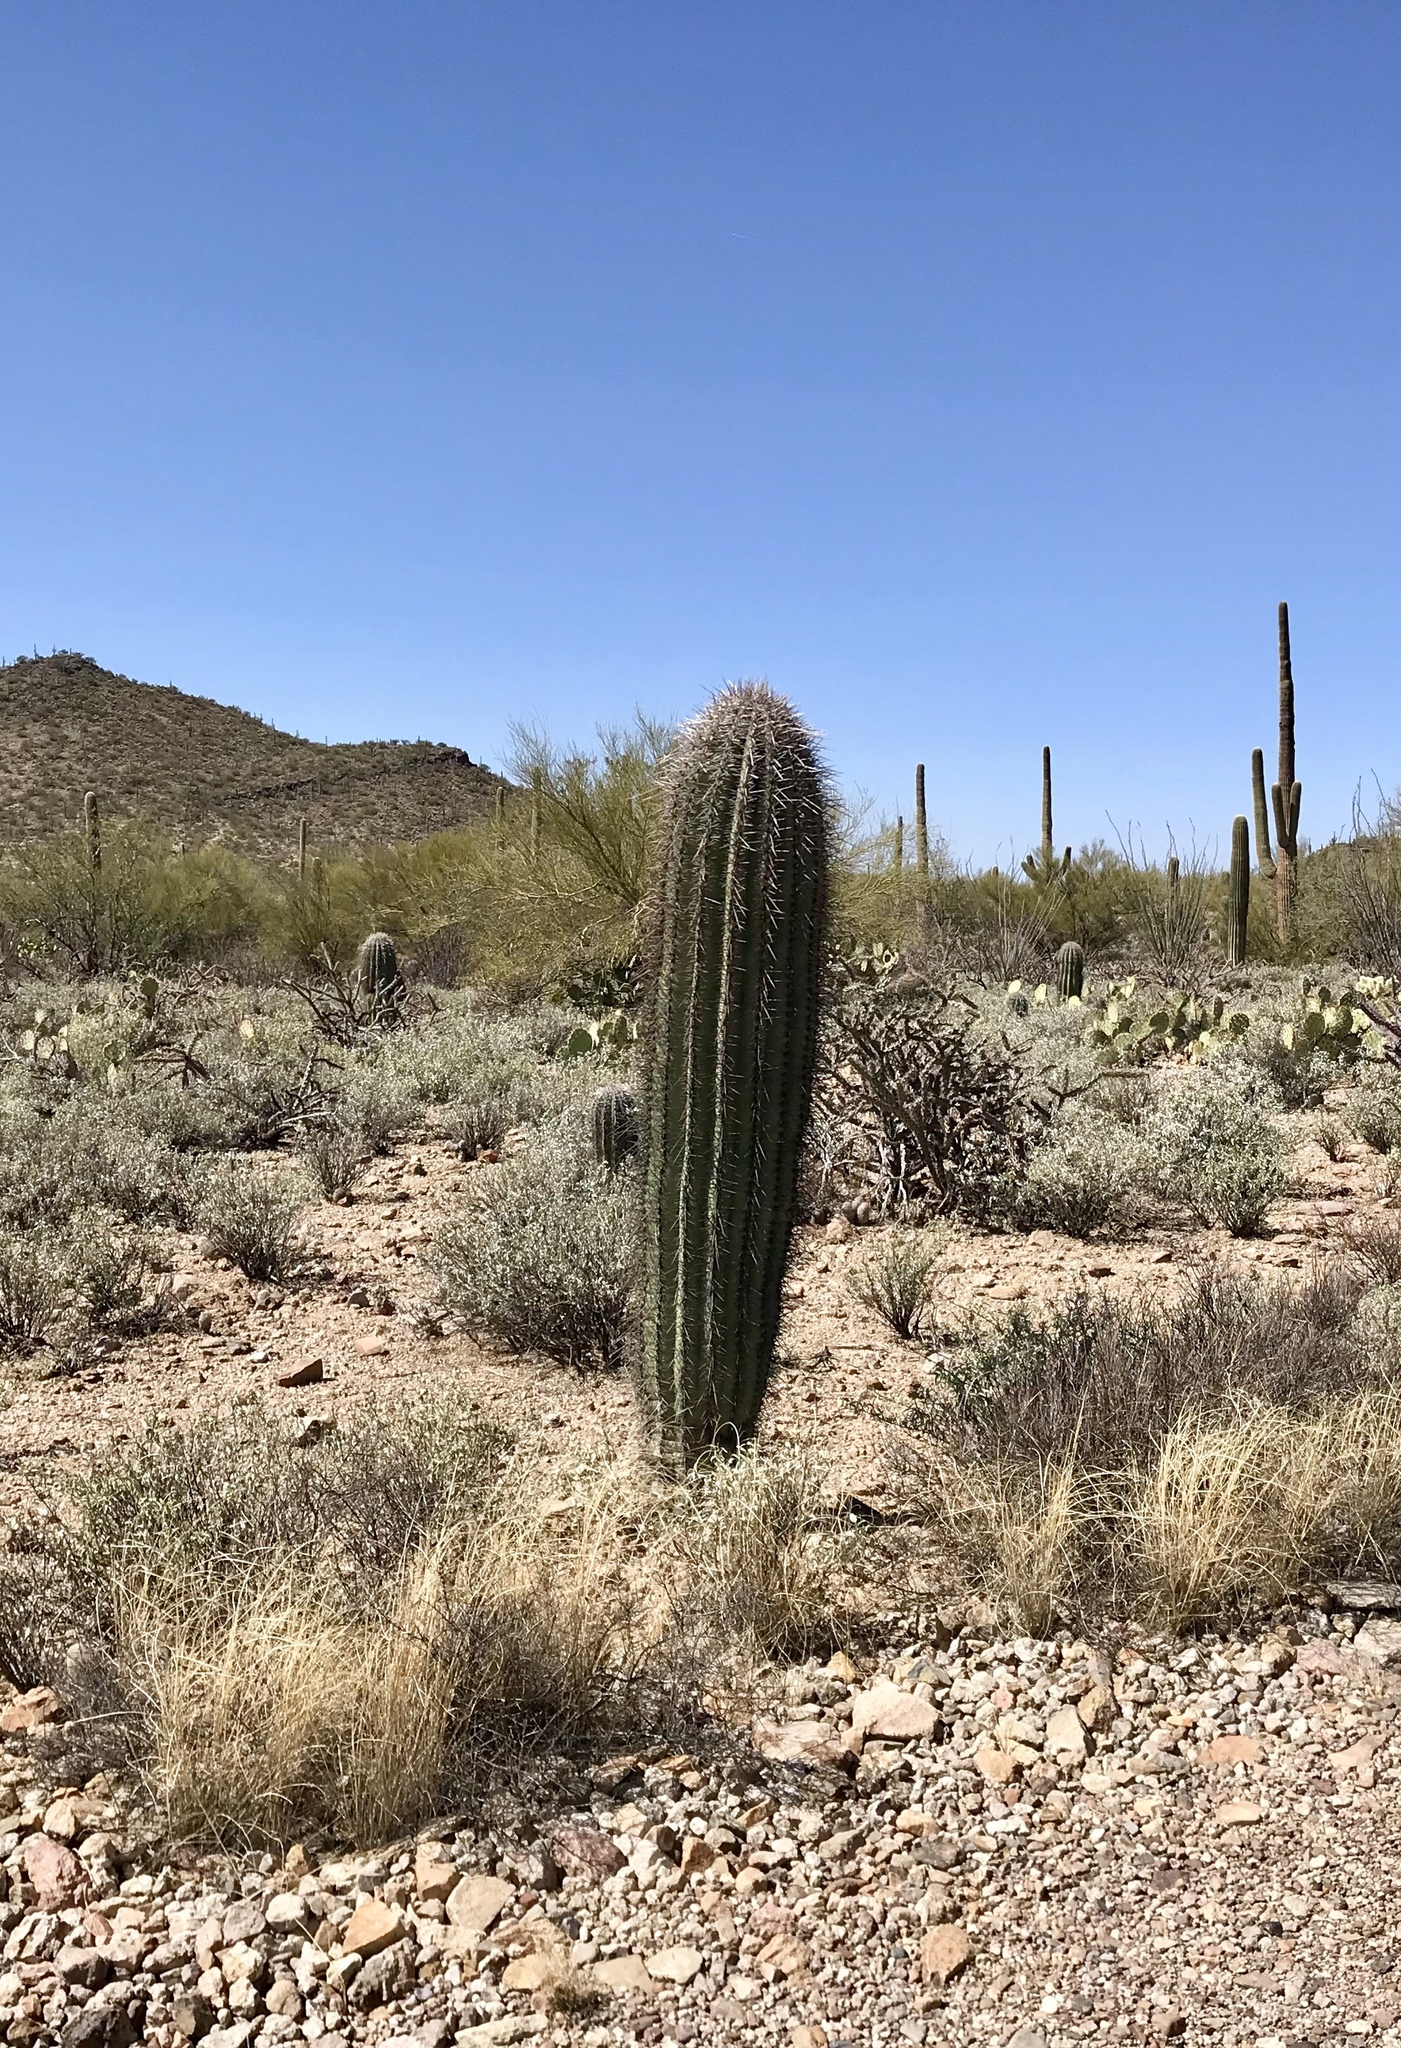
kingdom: Plantae
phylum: Tracheophyta
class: Magnoliopsida
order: Caryophyllales
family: Cactaceae
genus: Carnegiea
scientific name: Carnegiea gigantea
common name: Saguaro
